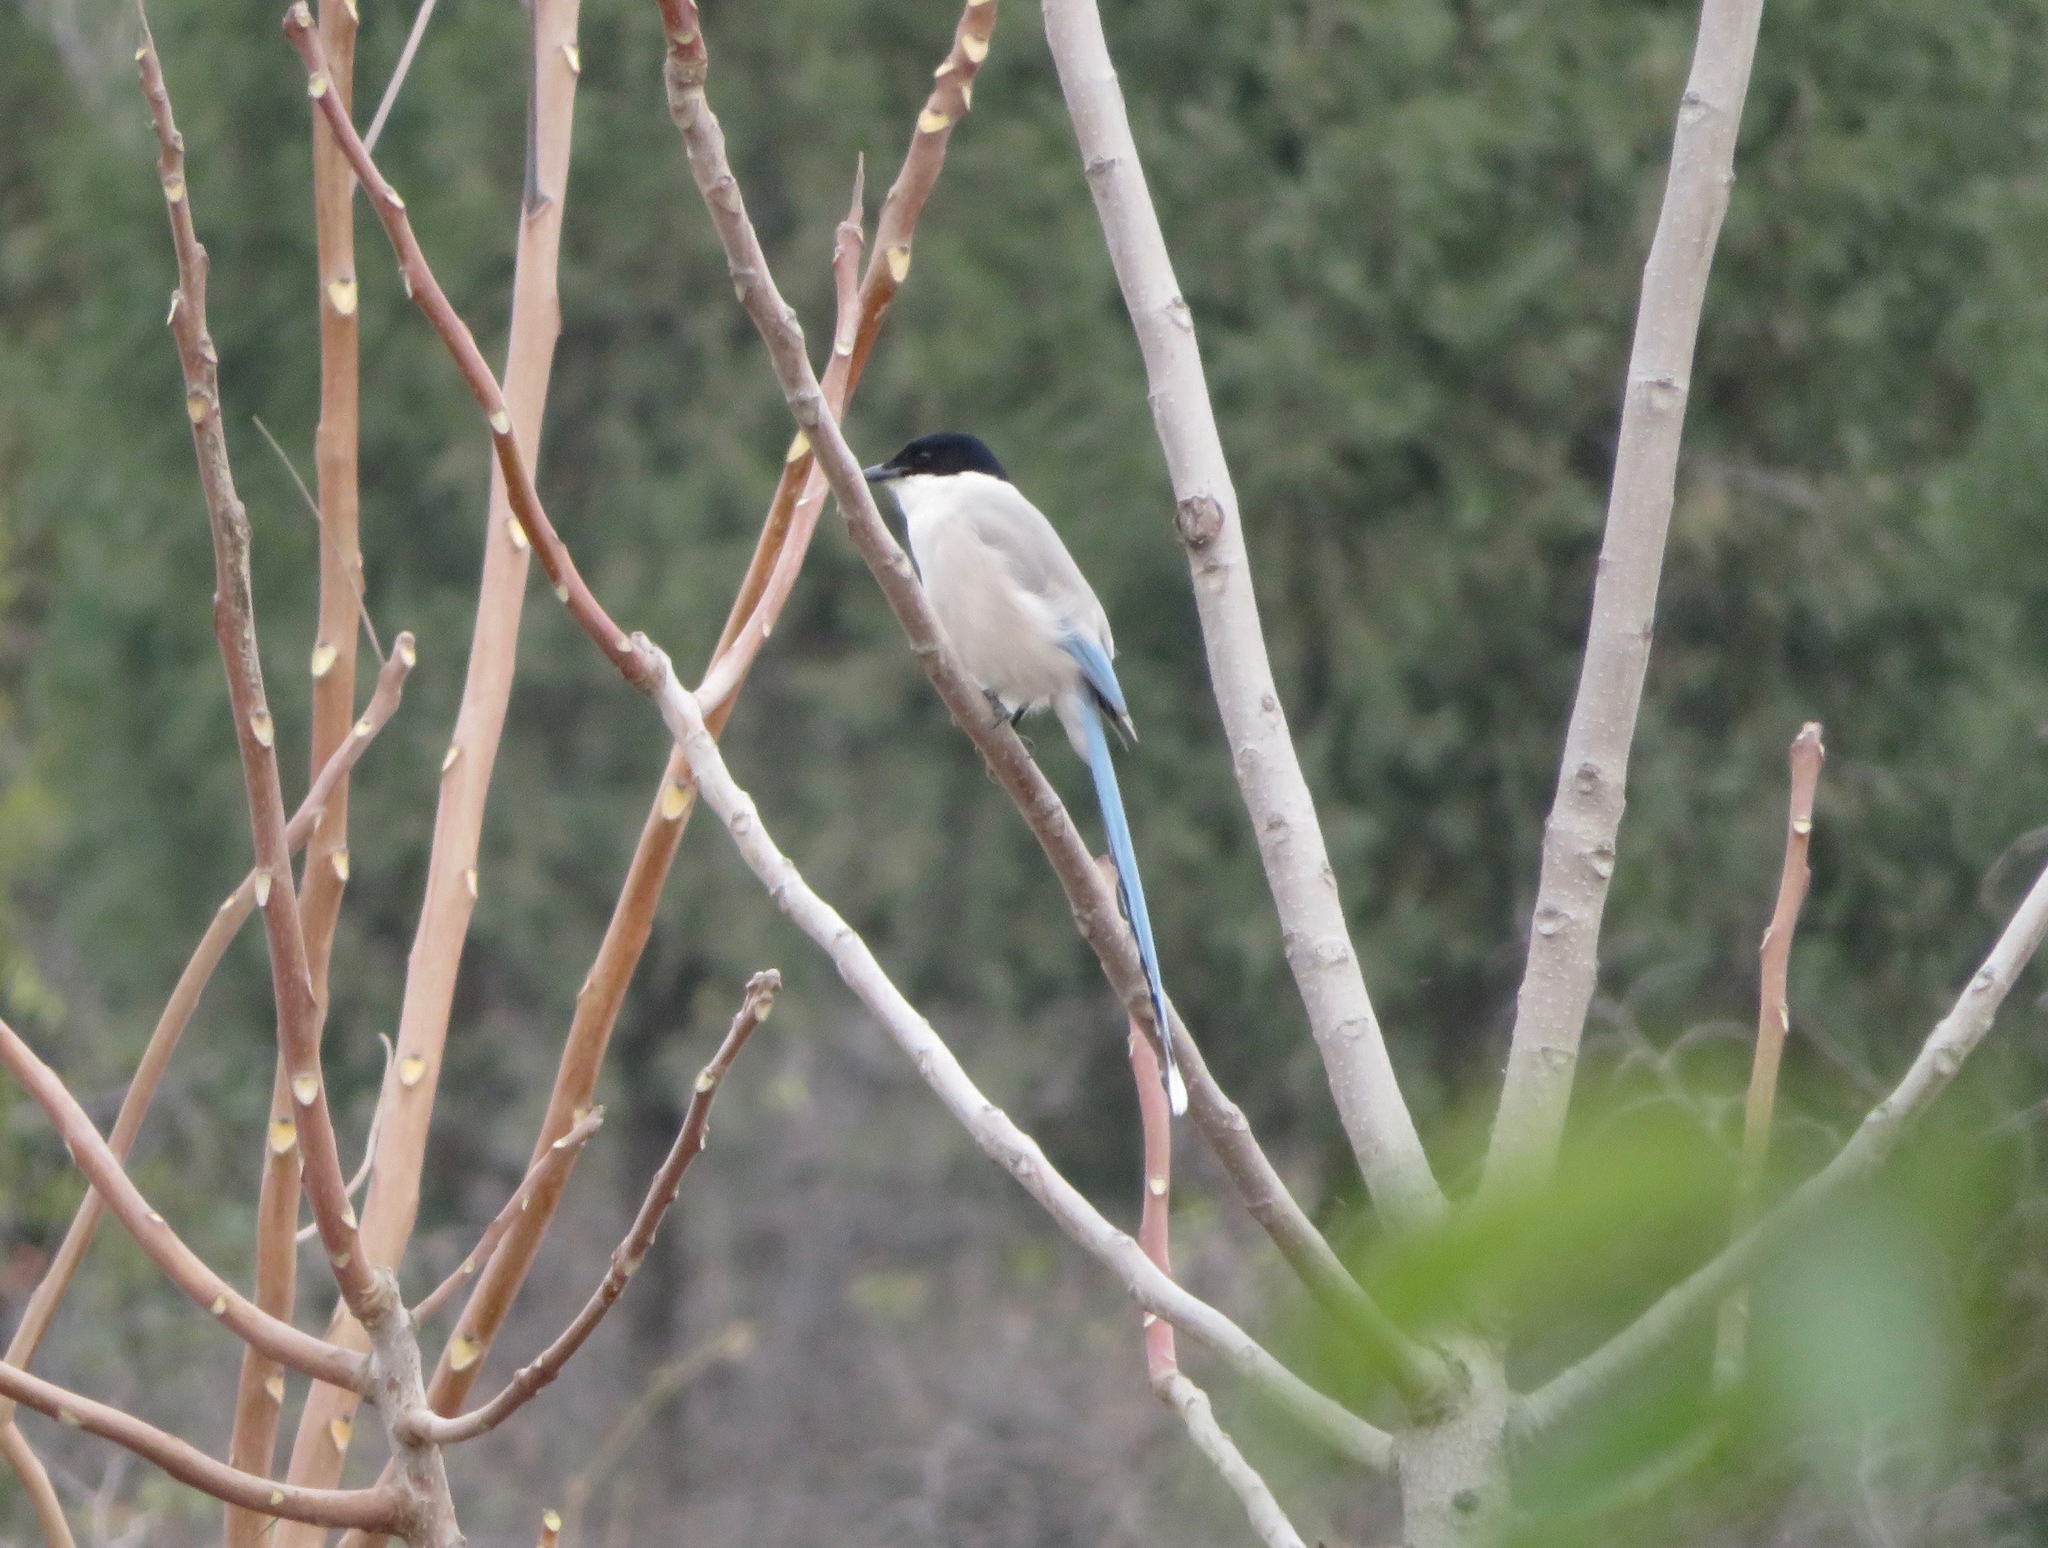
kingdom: Animalia
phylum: Chordata
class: Aves
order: Passeriformes
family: Corvidae
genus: Cyanopica
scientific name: Cyanopica cyanus
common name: Azure-winged magpie
